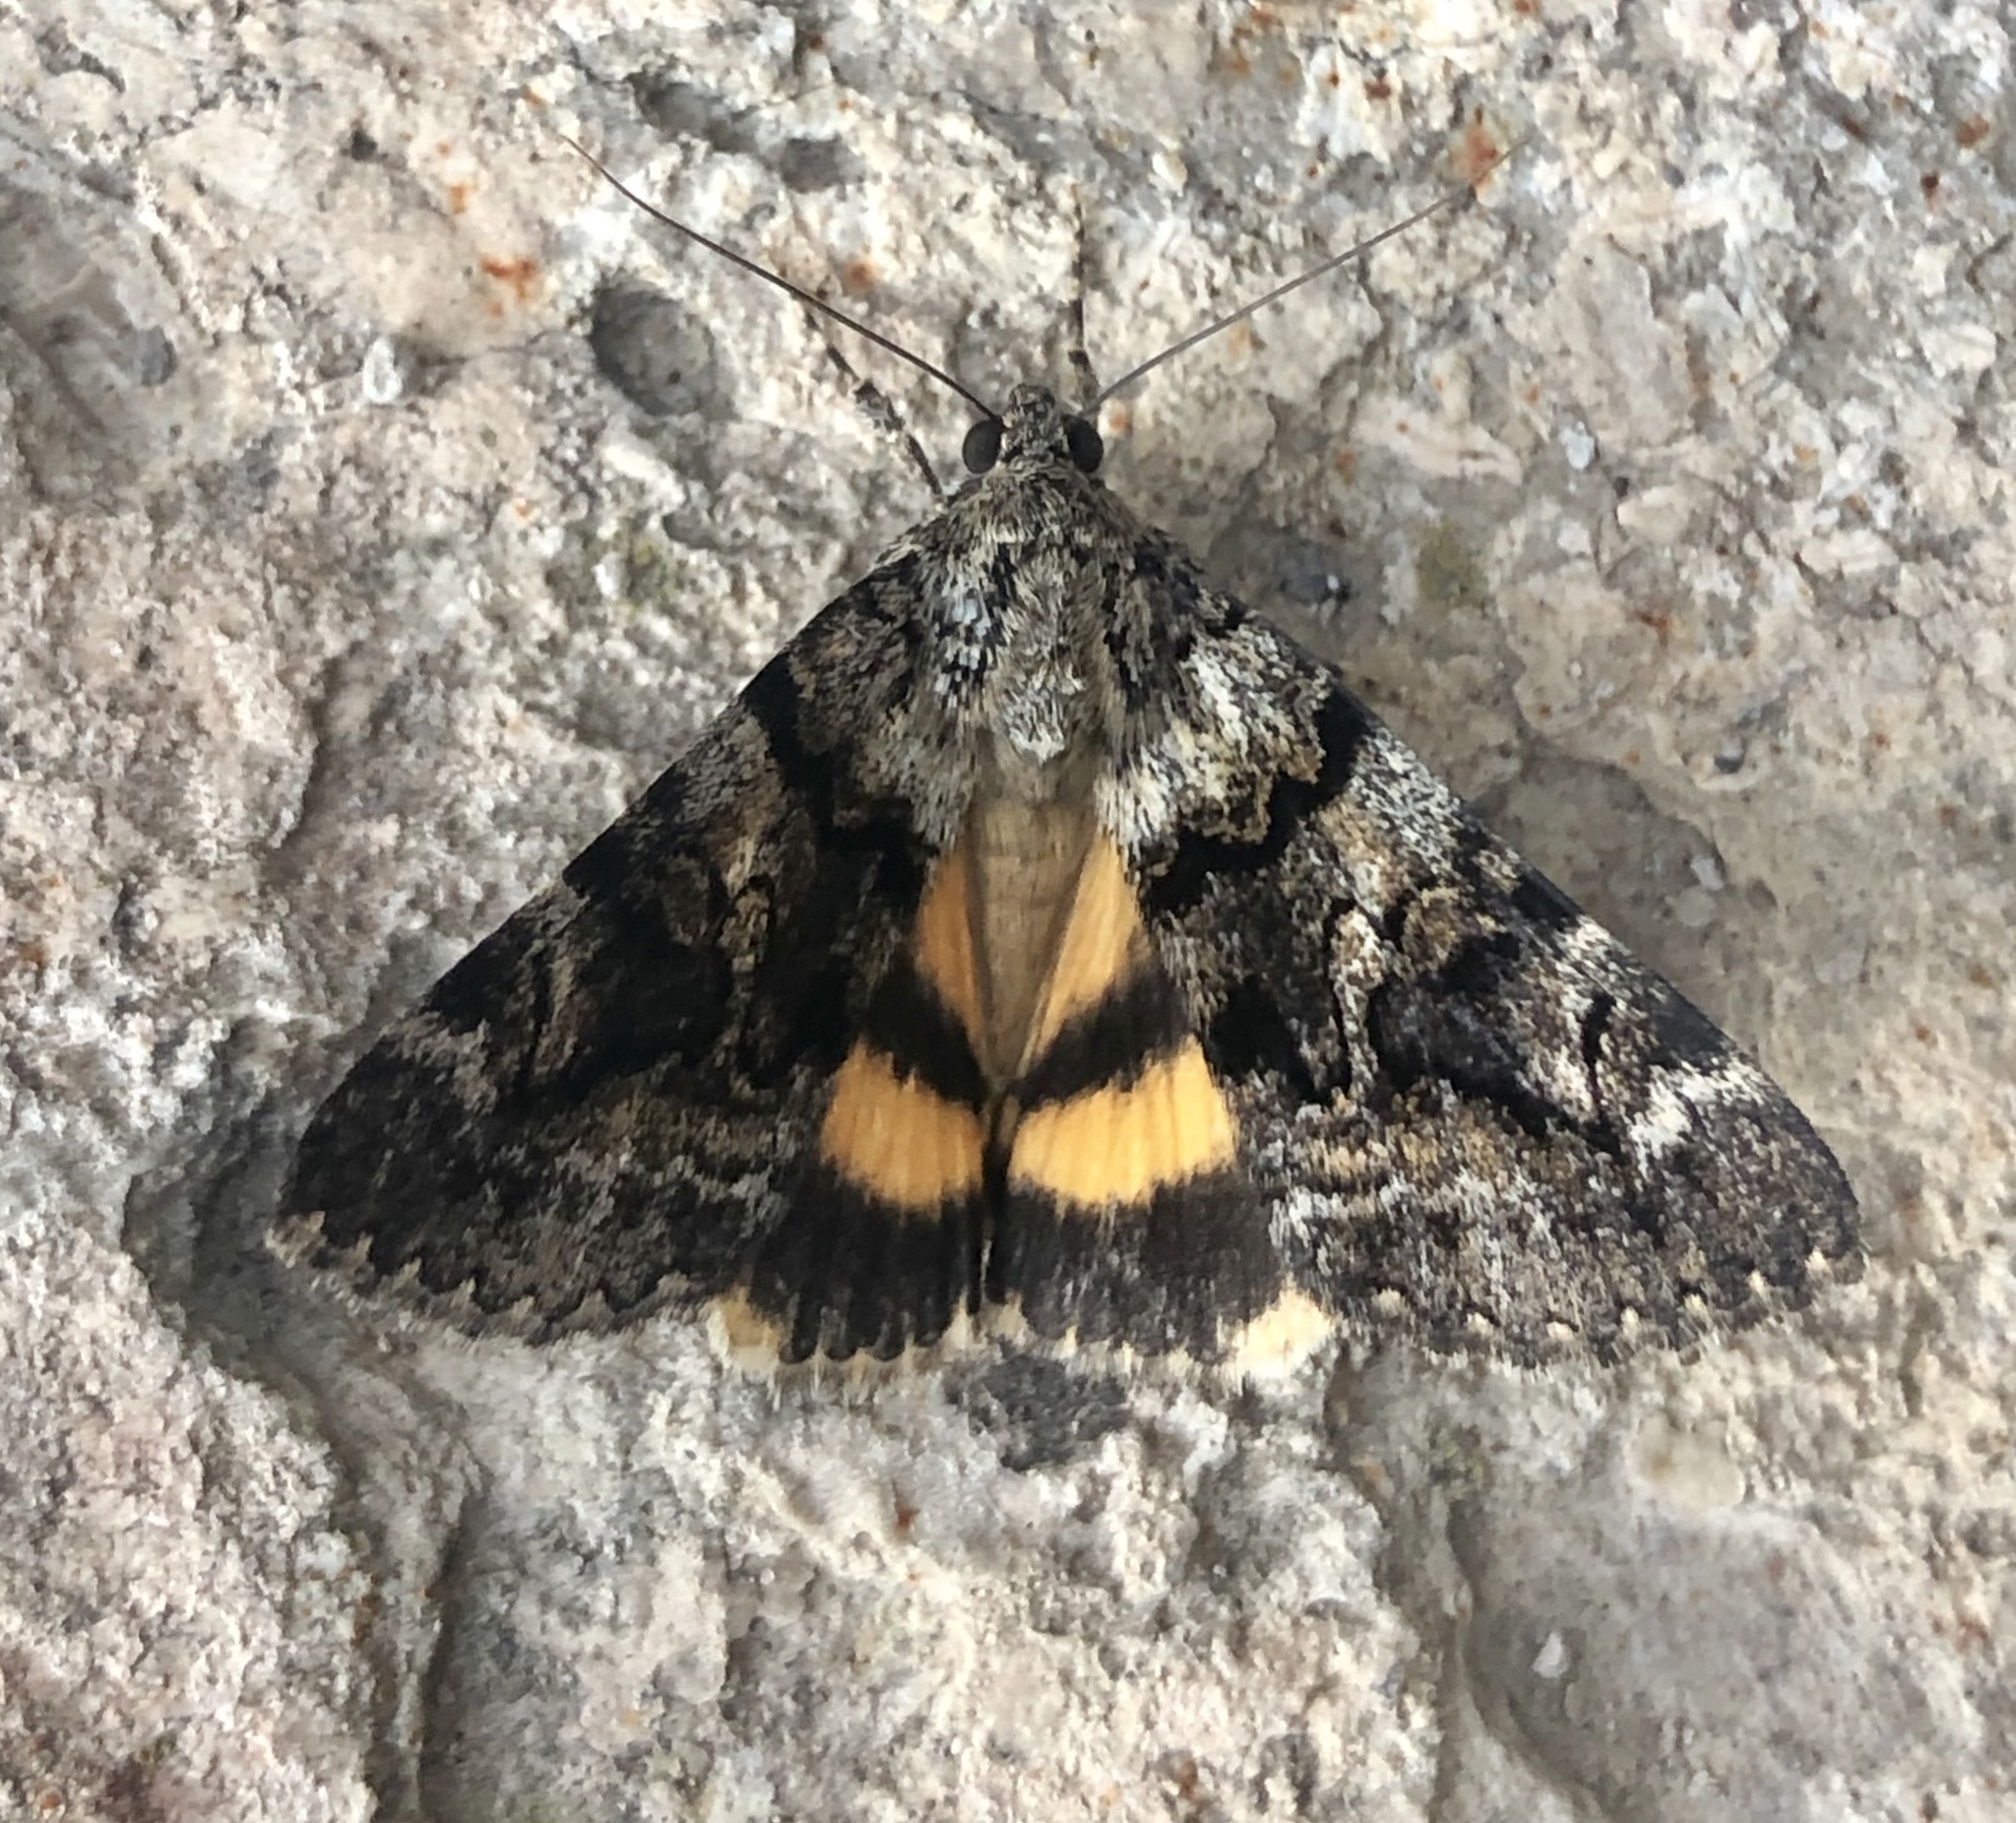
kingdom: Animalia
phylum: Arthropoda
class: Insecta
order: Lepidoptera
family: Erebidae
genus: Catocala
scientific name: Catocala nymphagoga
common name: Oak yellow underwing
